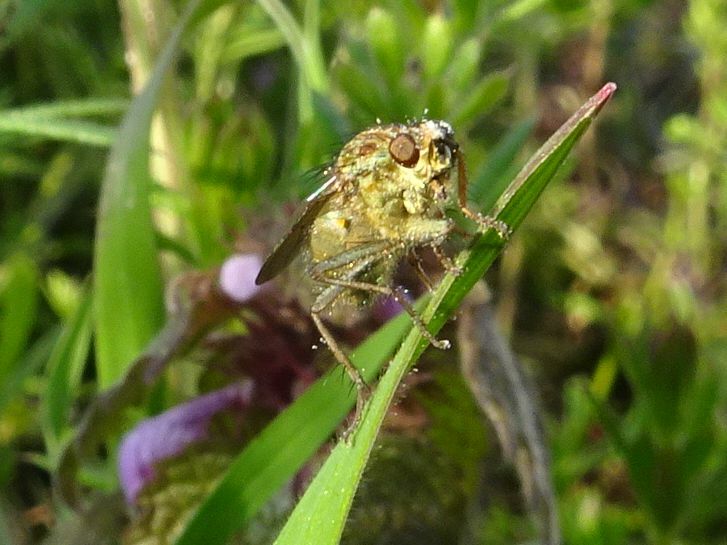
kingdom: Animalia
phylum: Arthropoda
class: Insecta
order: Diptera
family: Scathophagidae
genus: Scathophaga
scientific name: Scathophaga stercoraria
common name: Yellow dung fly
